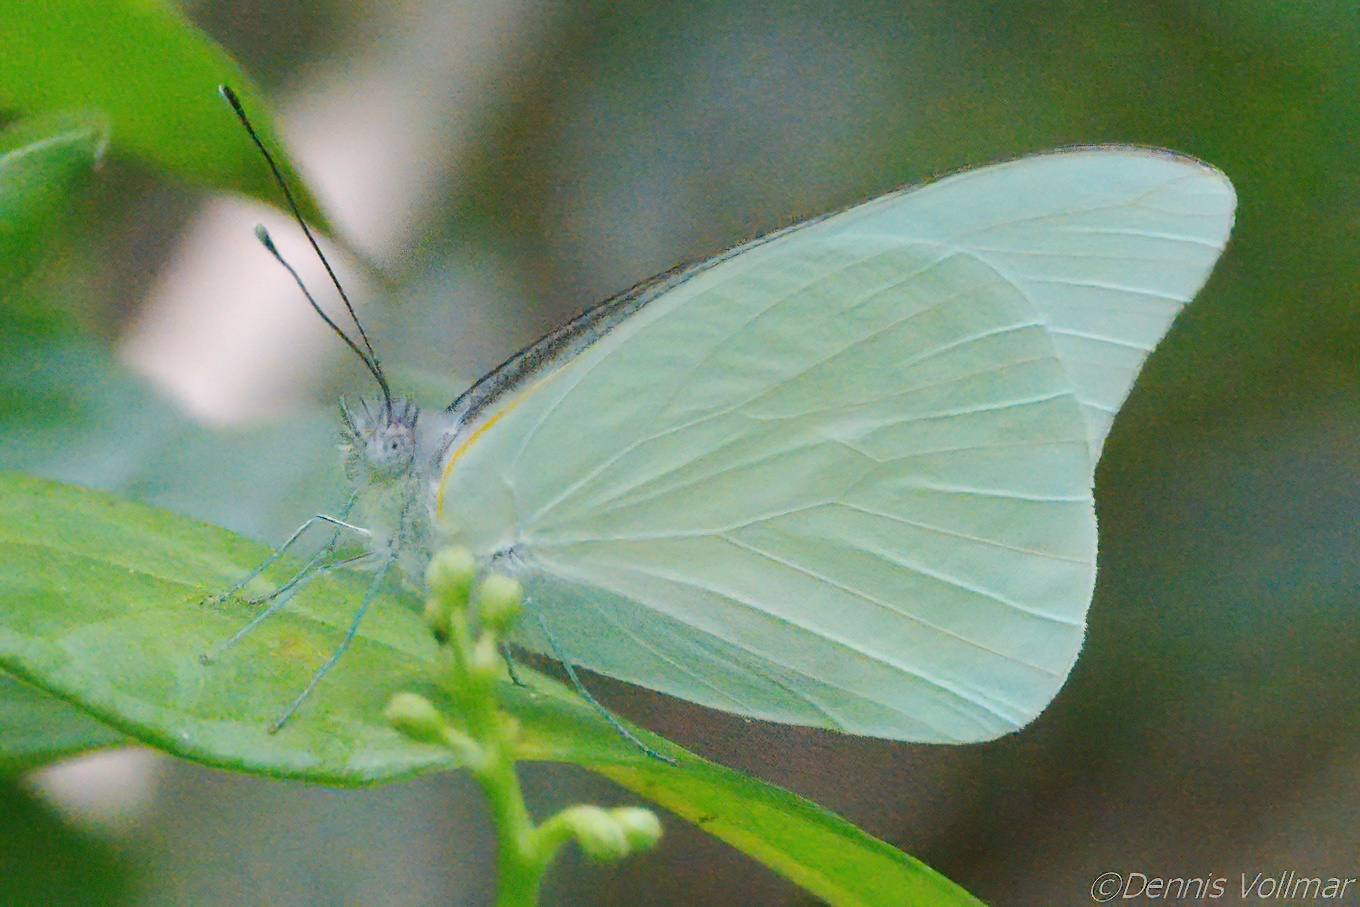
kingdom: Animalia
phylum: Arthropoda
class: Insecta
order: Lepidoptera
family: Pieridae
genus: Glutophrissa
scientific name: Glutophrissa drusilla
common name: Florida white
